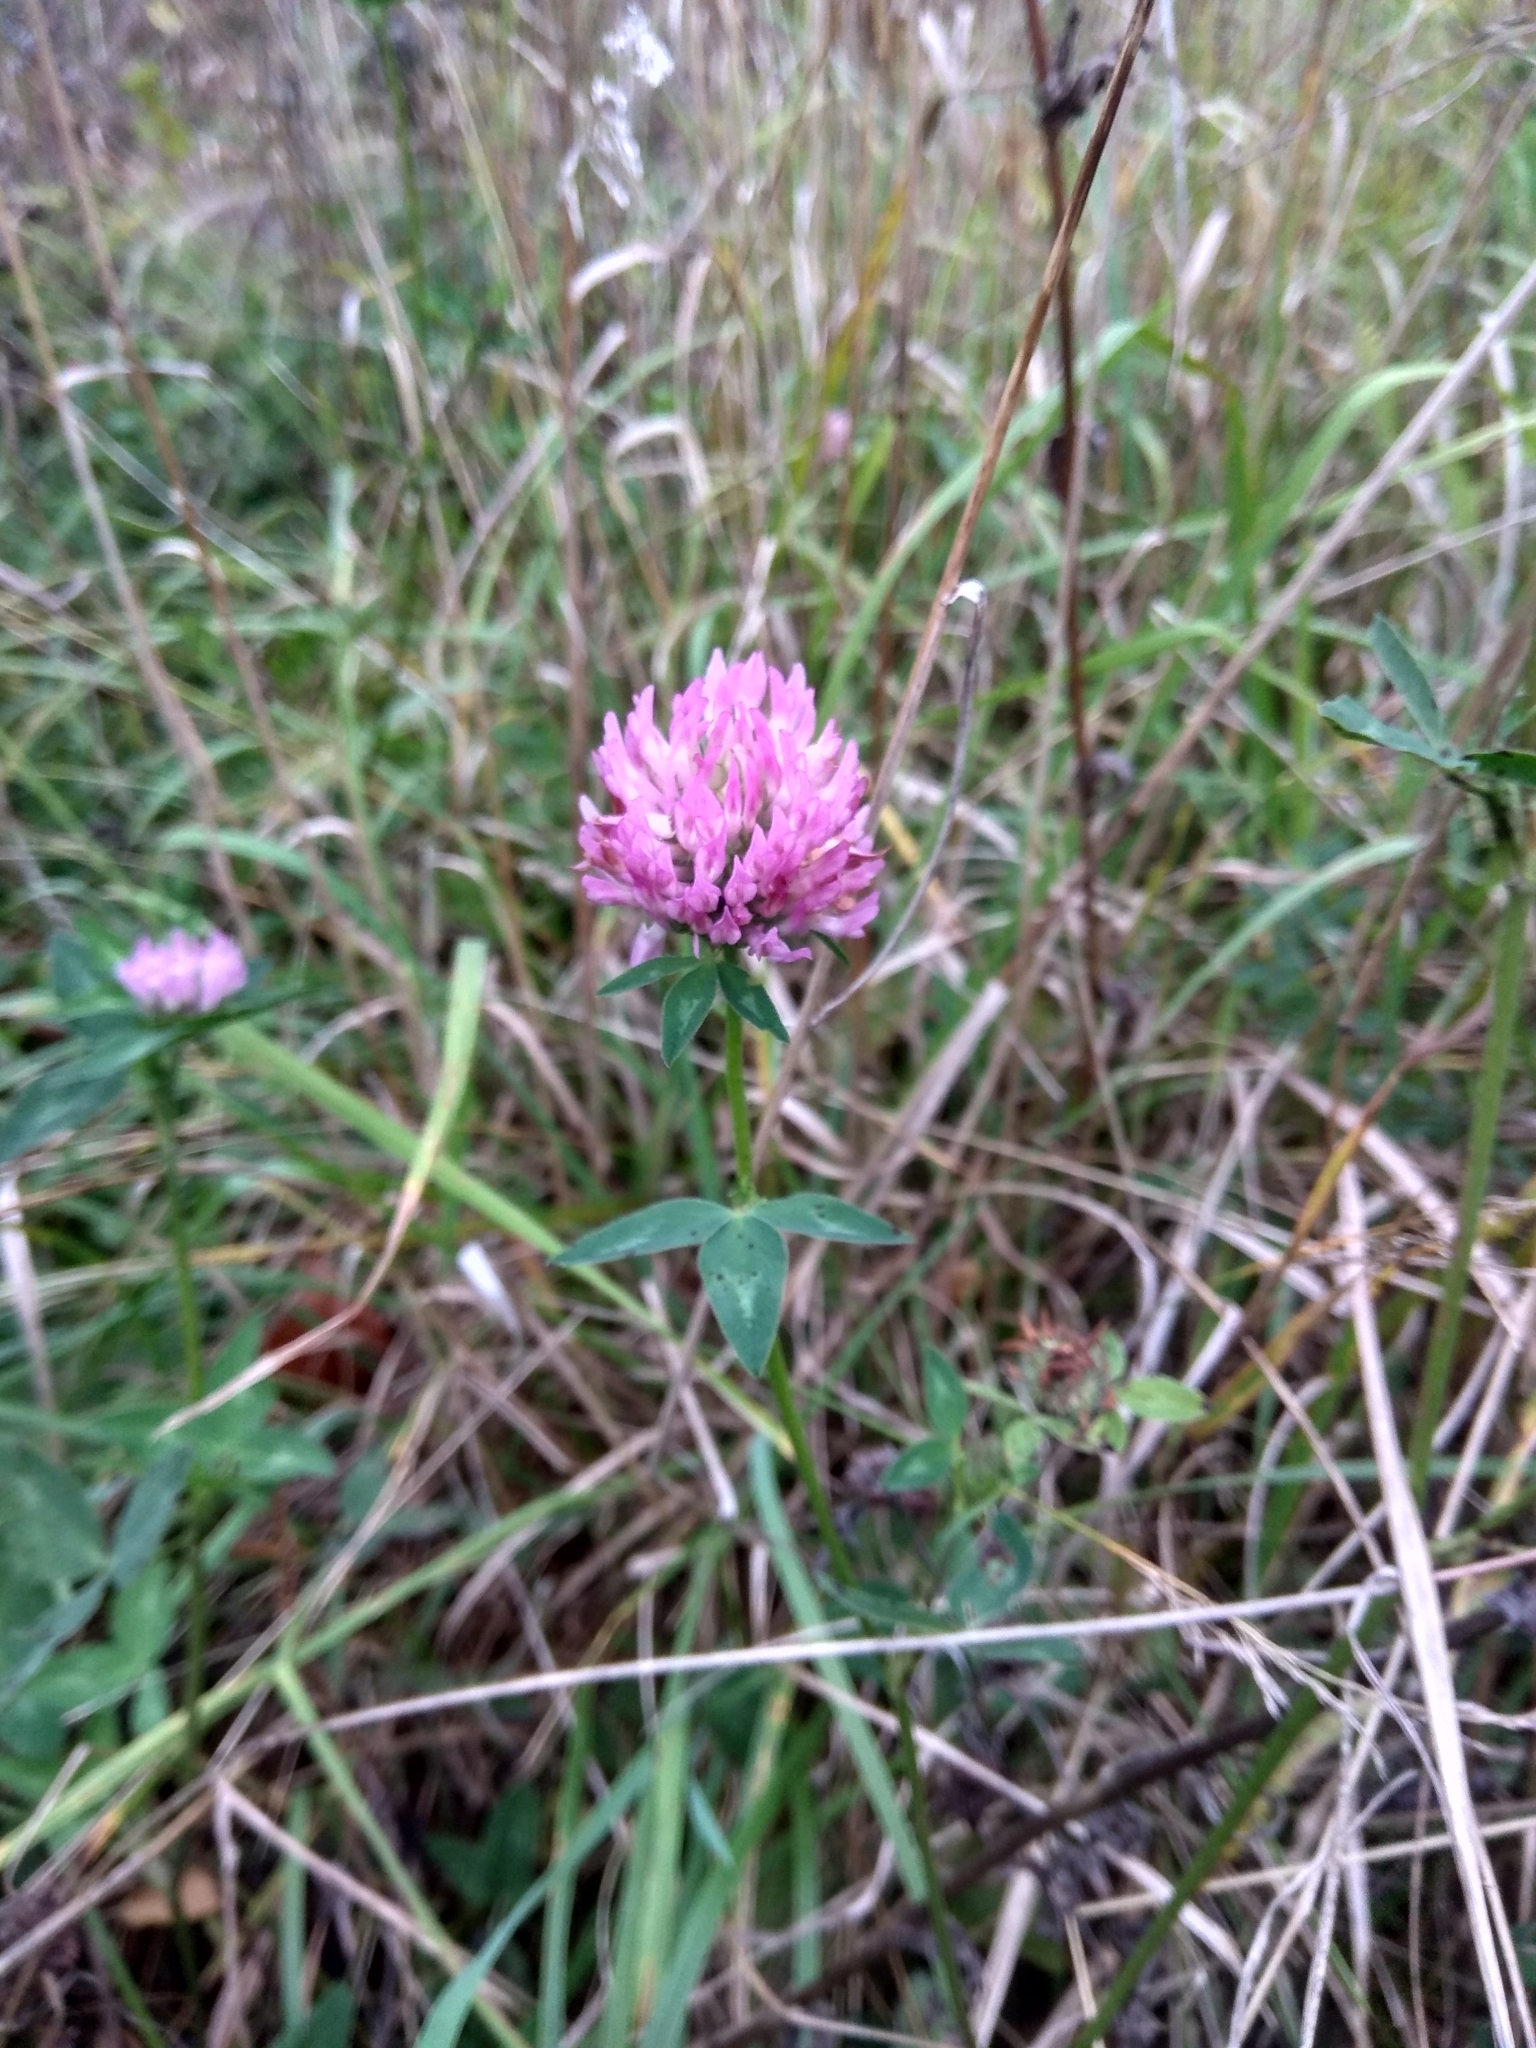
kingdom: Plantae
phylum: Tracheophyta
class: Magnoliopsida
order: Fabales
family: Fabaceae
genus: Trifolium
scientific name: Trifolium pratense
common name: Red clover
